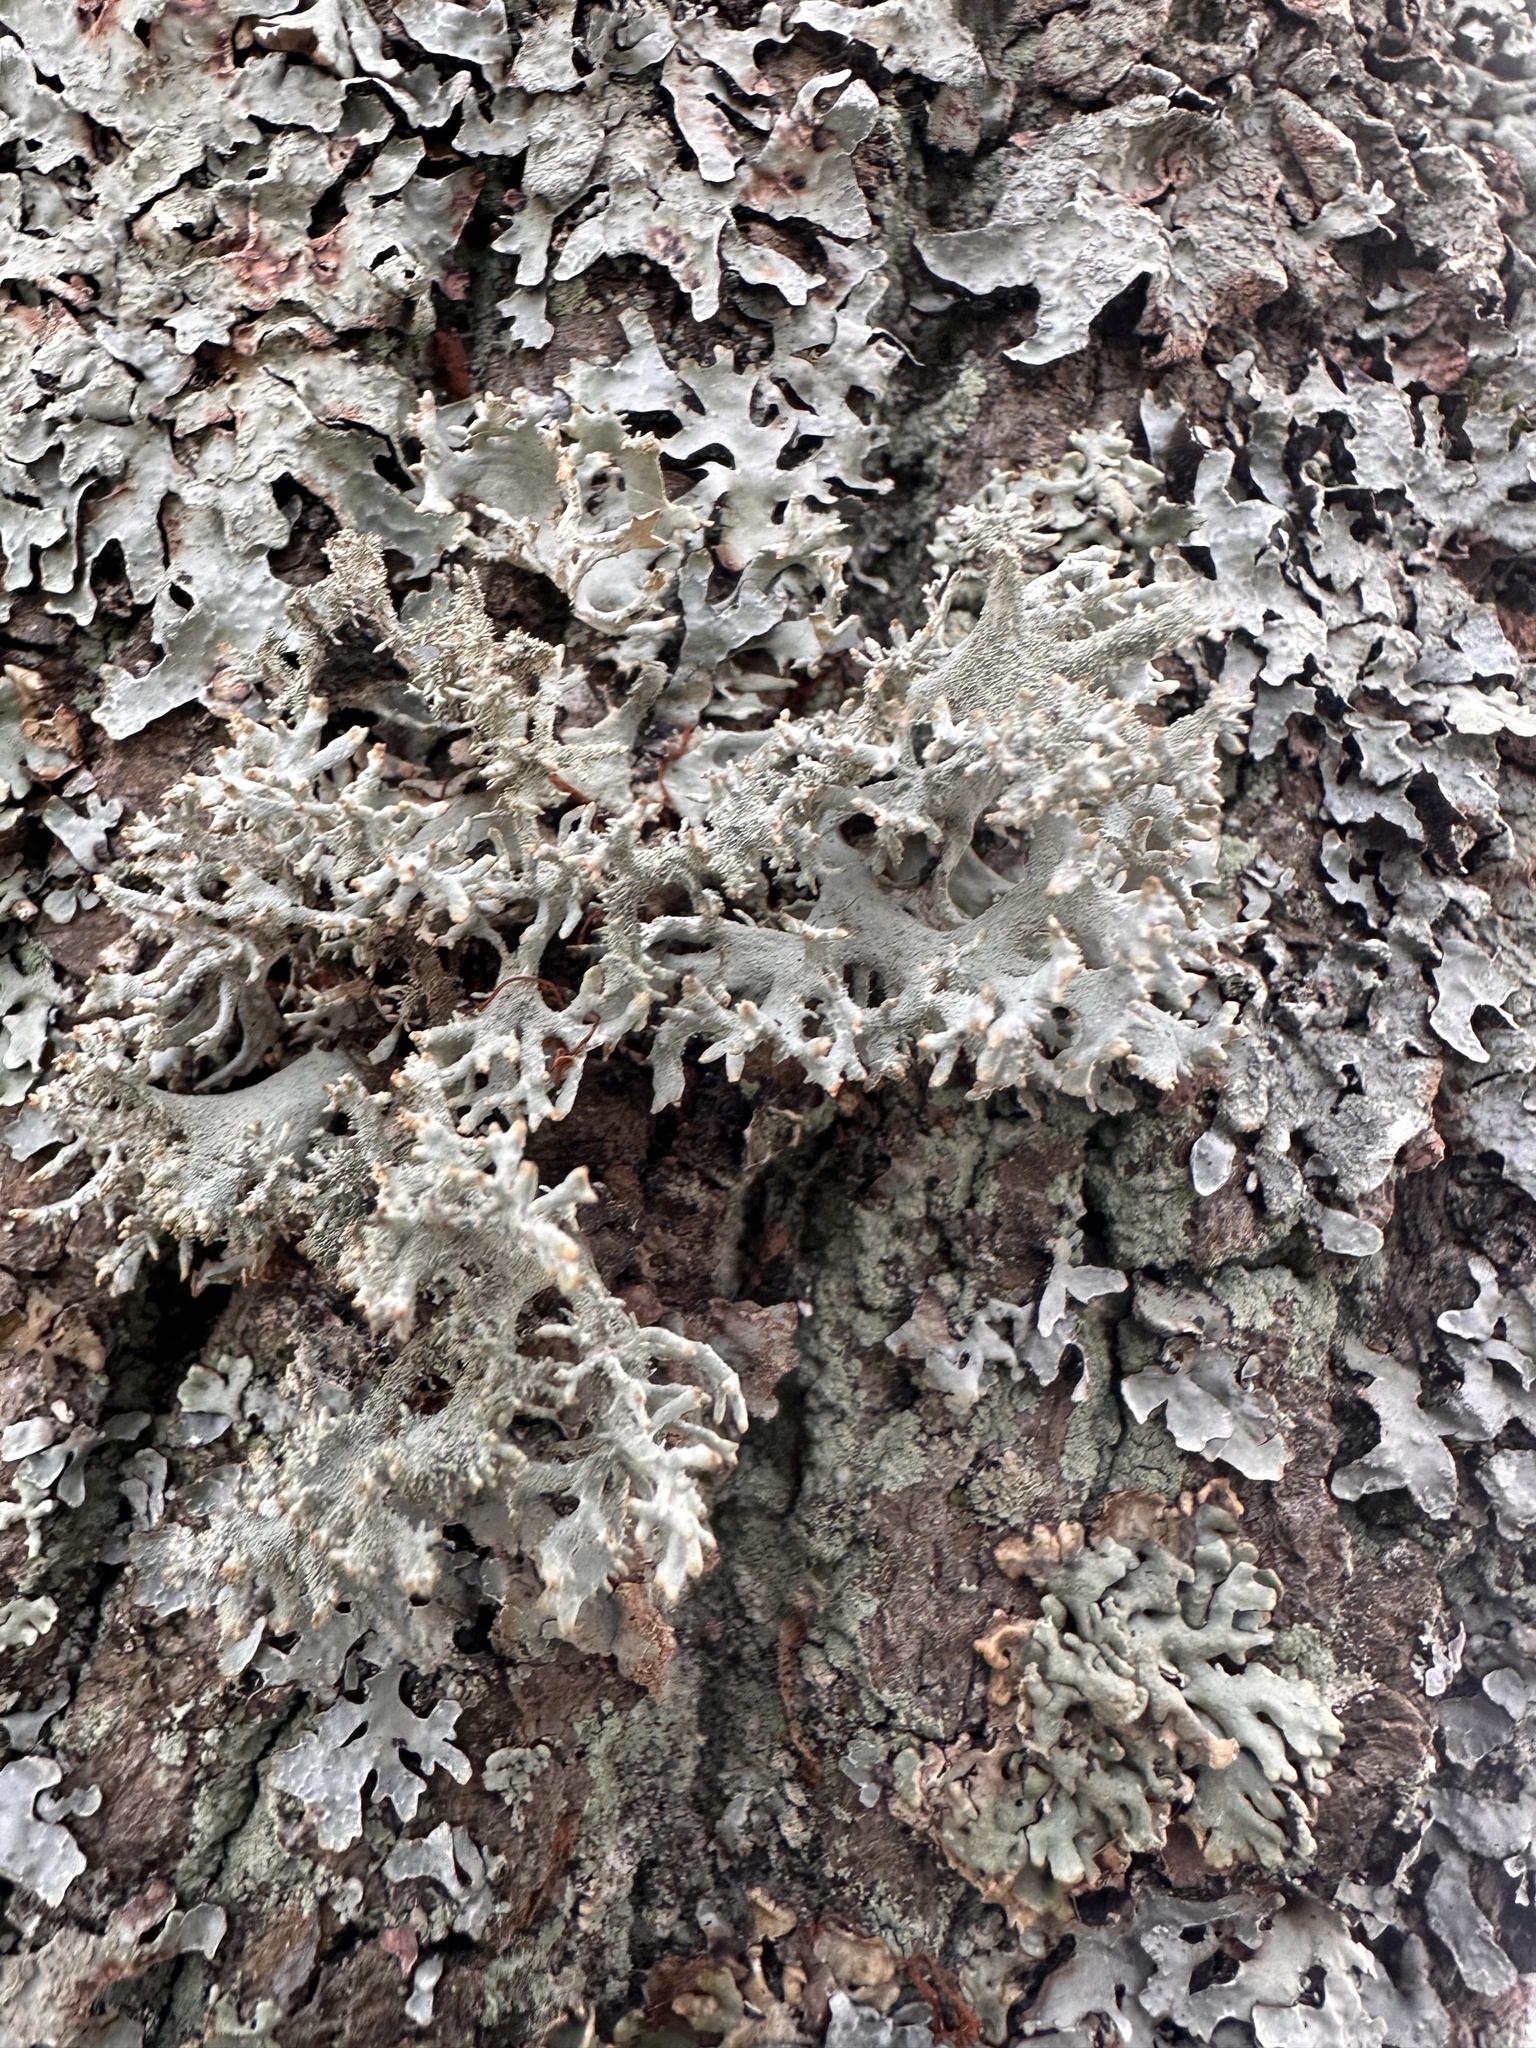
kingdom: Fungi
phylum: Ascomycota
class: Lecanoromycetes
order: Lecanorales
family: Parmeliaceae
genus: Pseudevernia
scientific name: Pseudevernia furfuracea
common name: Tree moss
